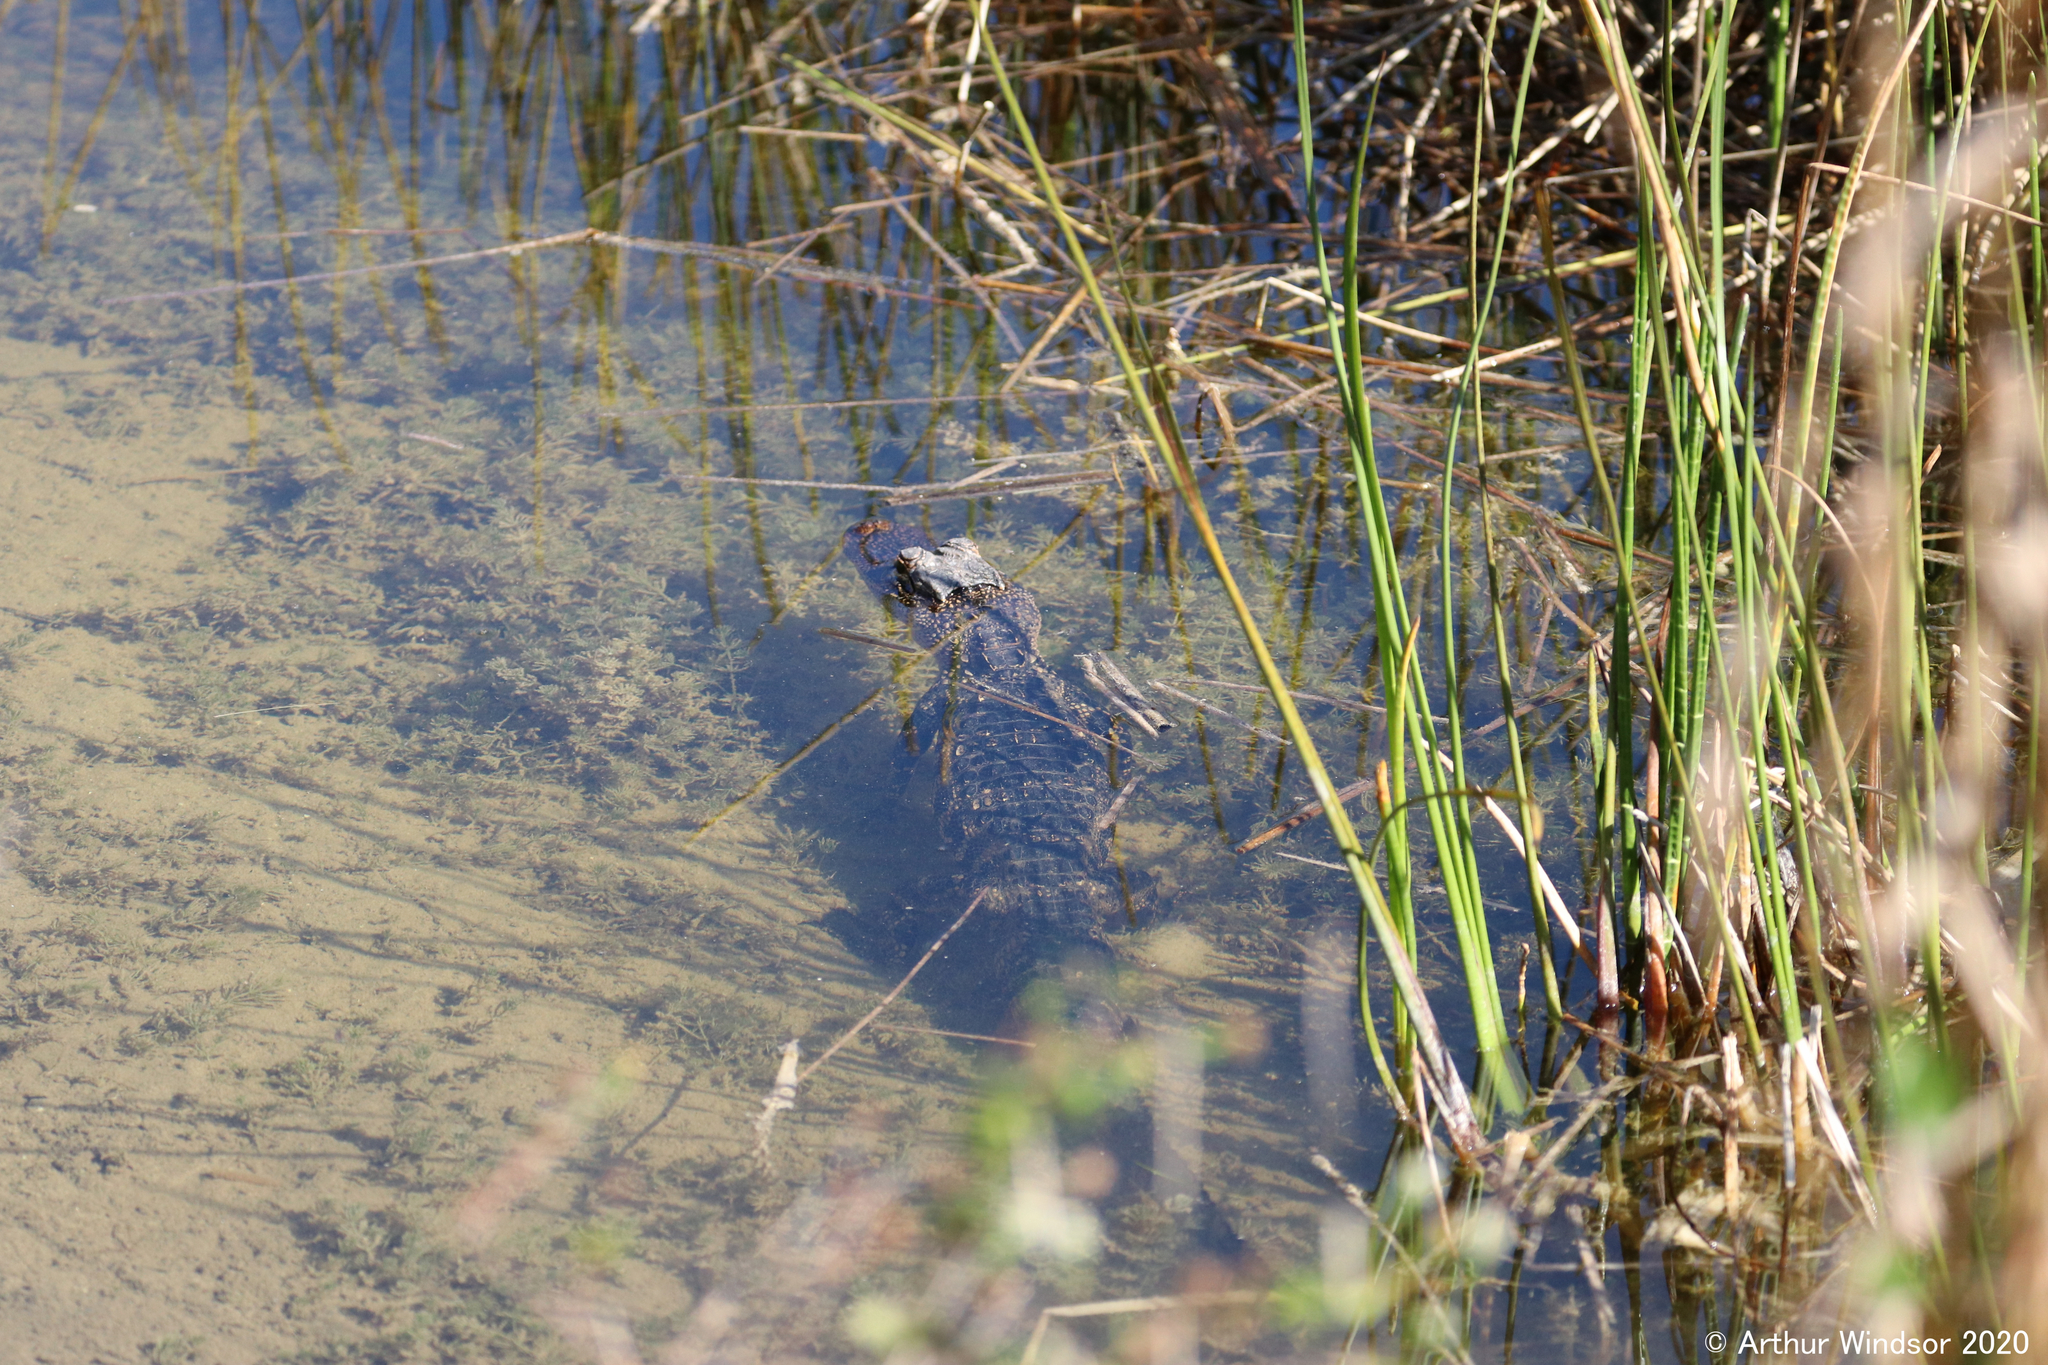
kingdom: Animalia
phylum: Chordata
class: Crocodylia
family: Alligatoridae
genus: Alligator
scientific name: Alligator mississippiensis
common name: American alligator
